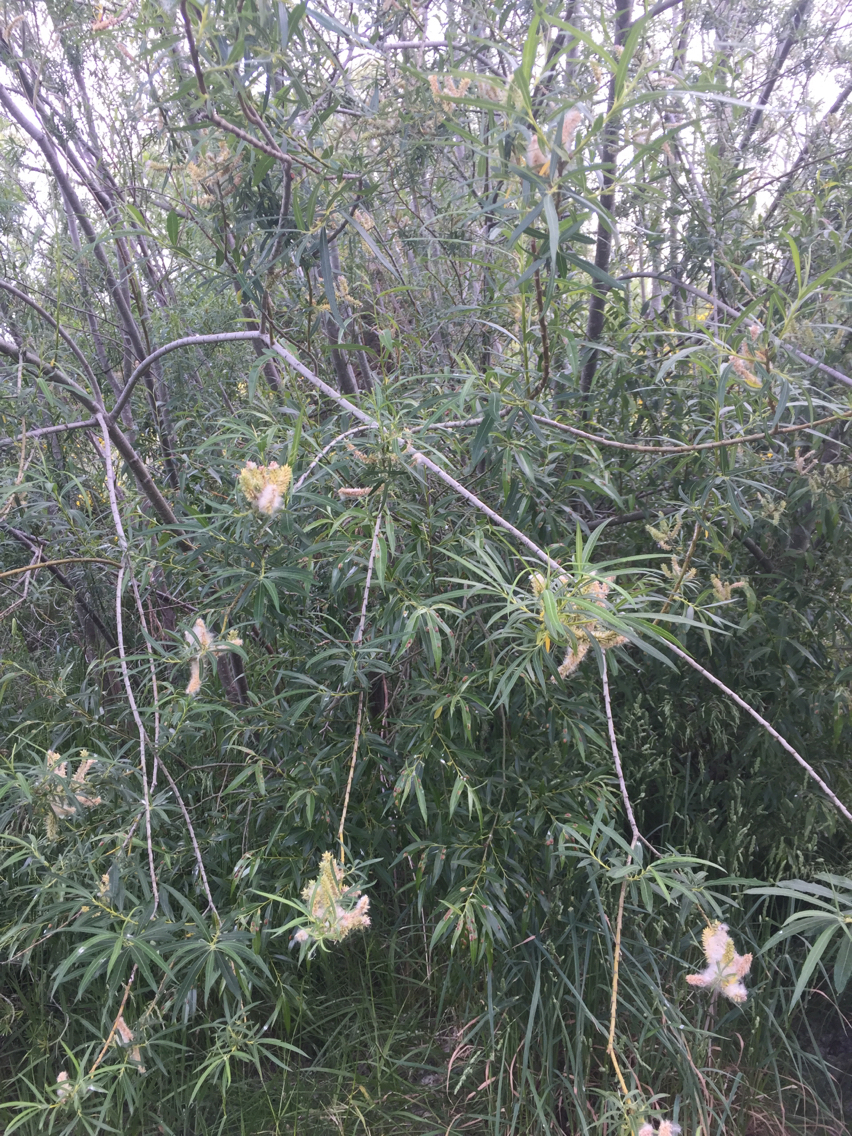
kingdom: Plantae
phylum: Tracheophyta
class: Magnoliopsida
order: Malpighiales
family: Salicaceae
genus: Salix
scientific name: Salix viminalis
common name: Osier
